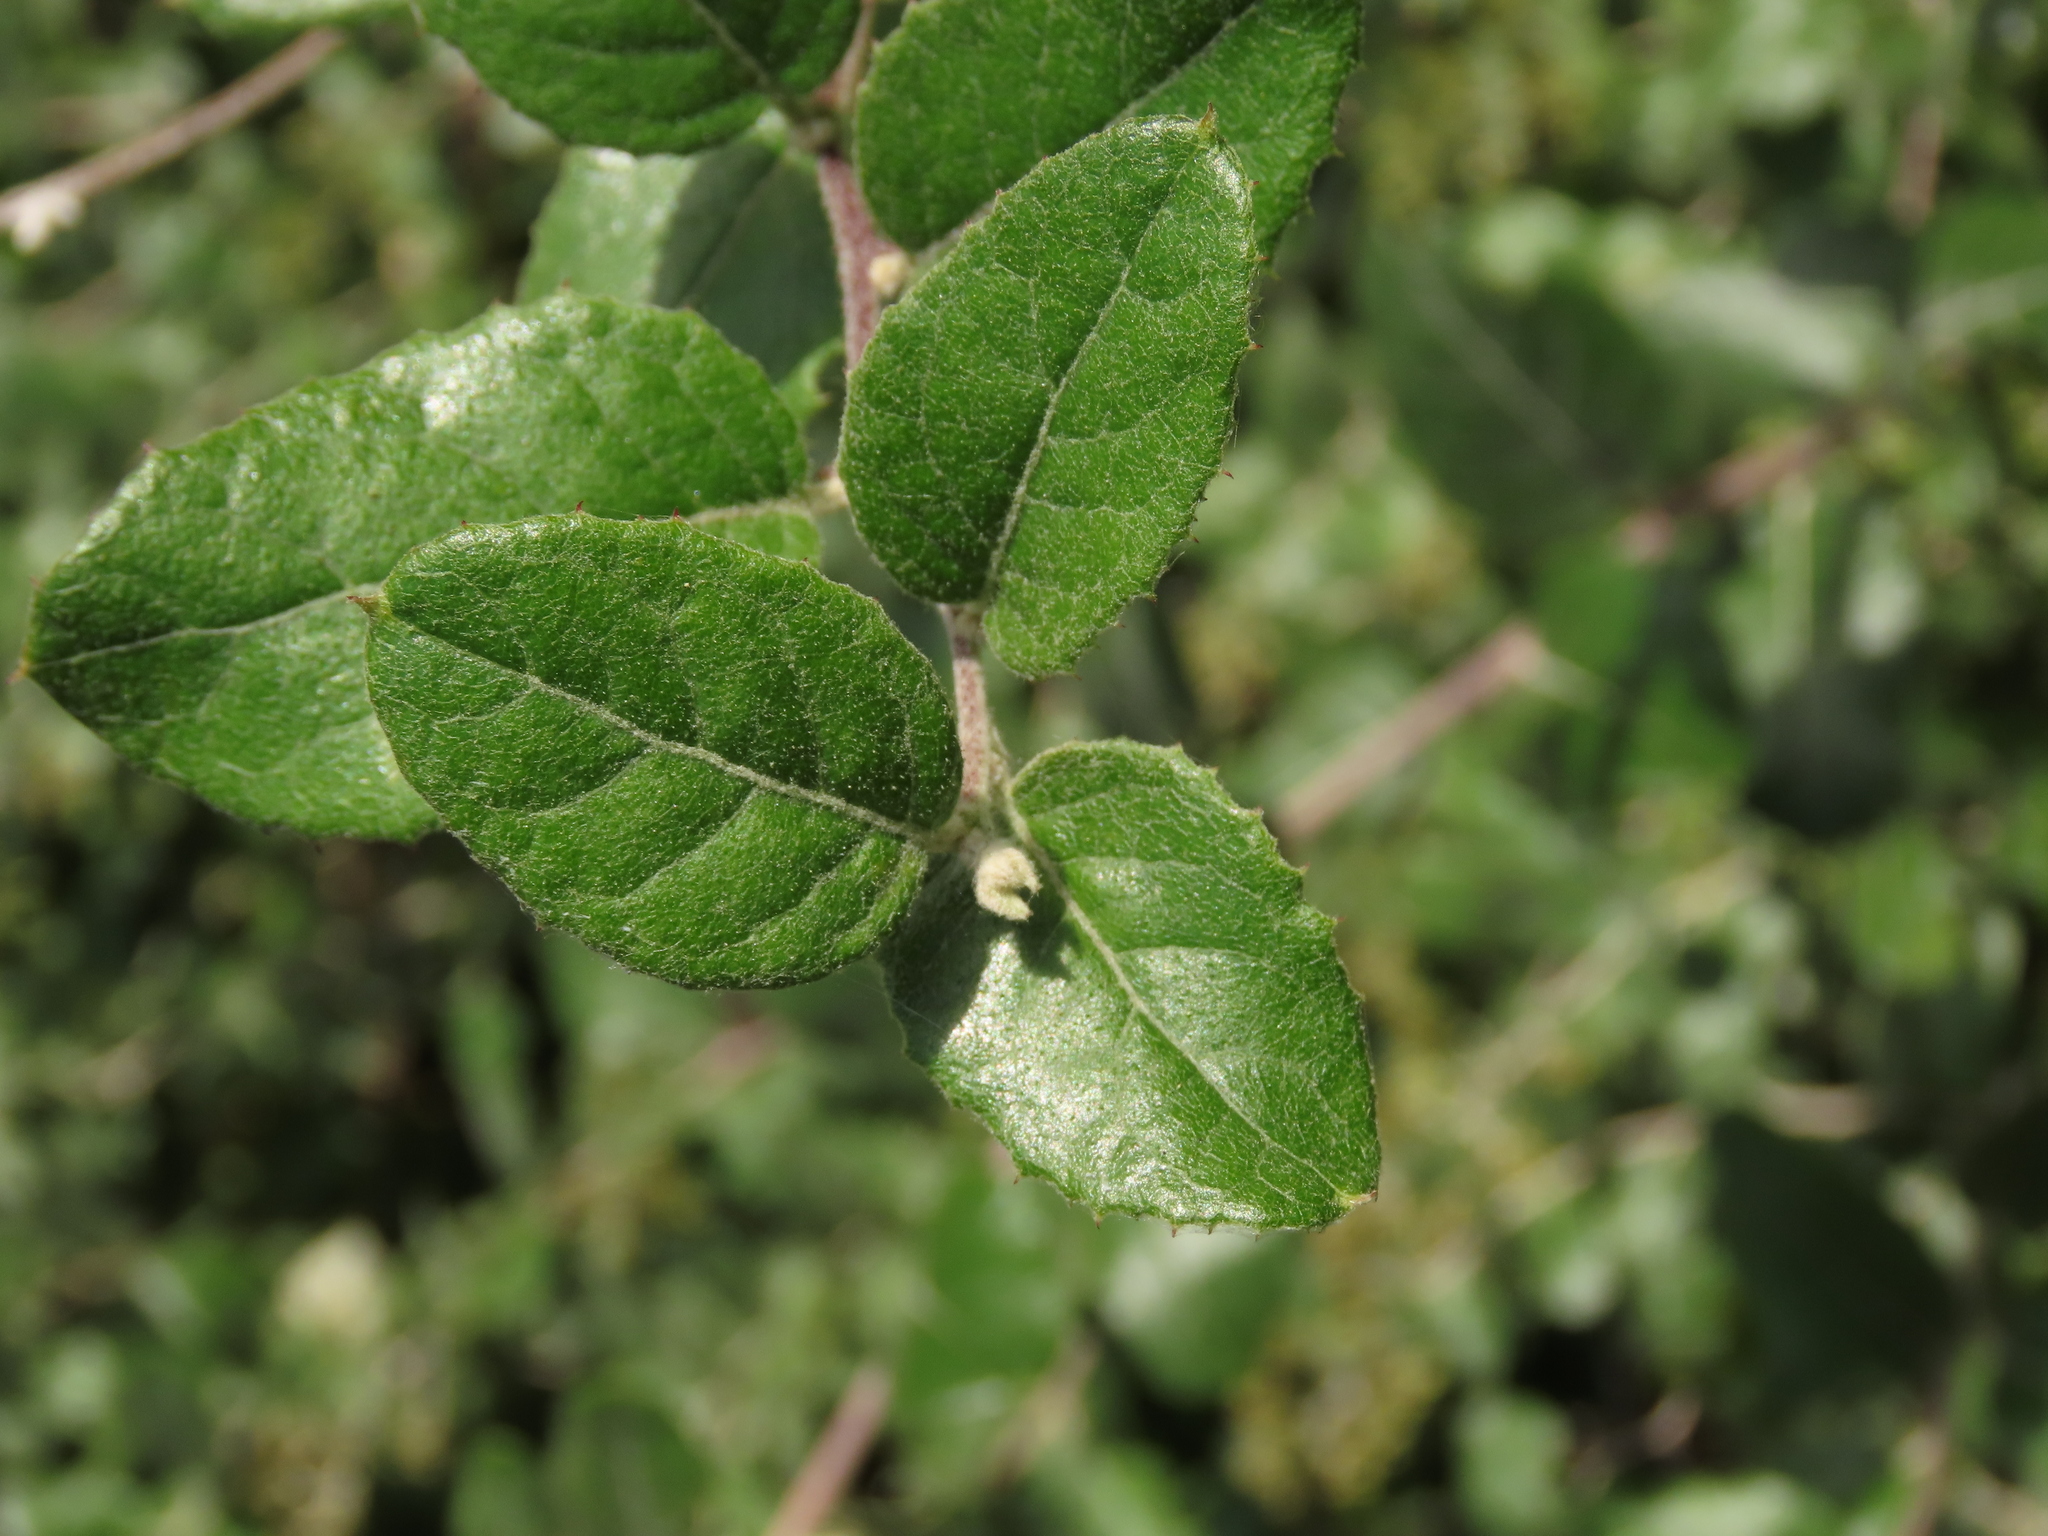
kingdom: Plantae
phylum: Tracheophyta
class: Magnoliopsida
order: Asterales
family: Asteraceae
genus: Proustia
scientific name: Proustia pyrifolia
